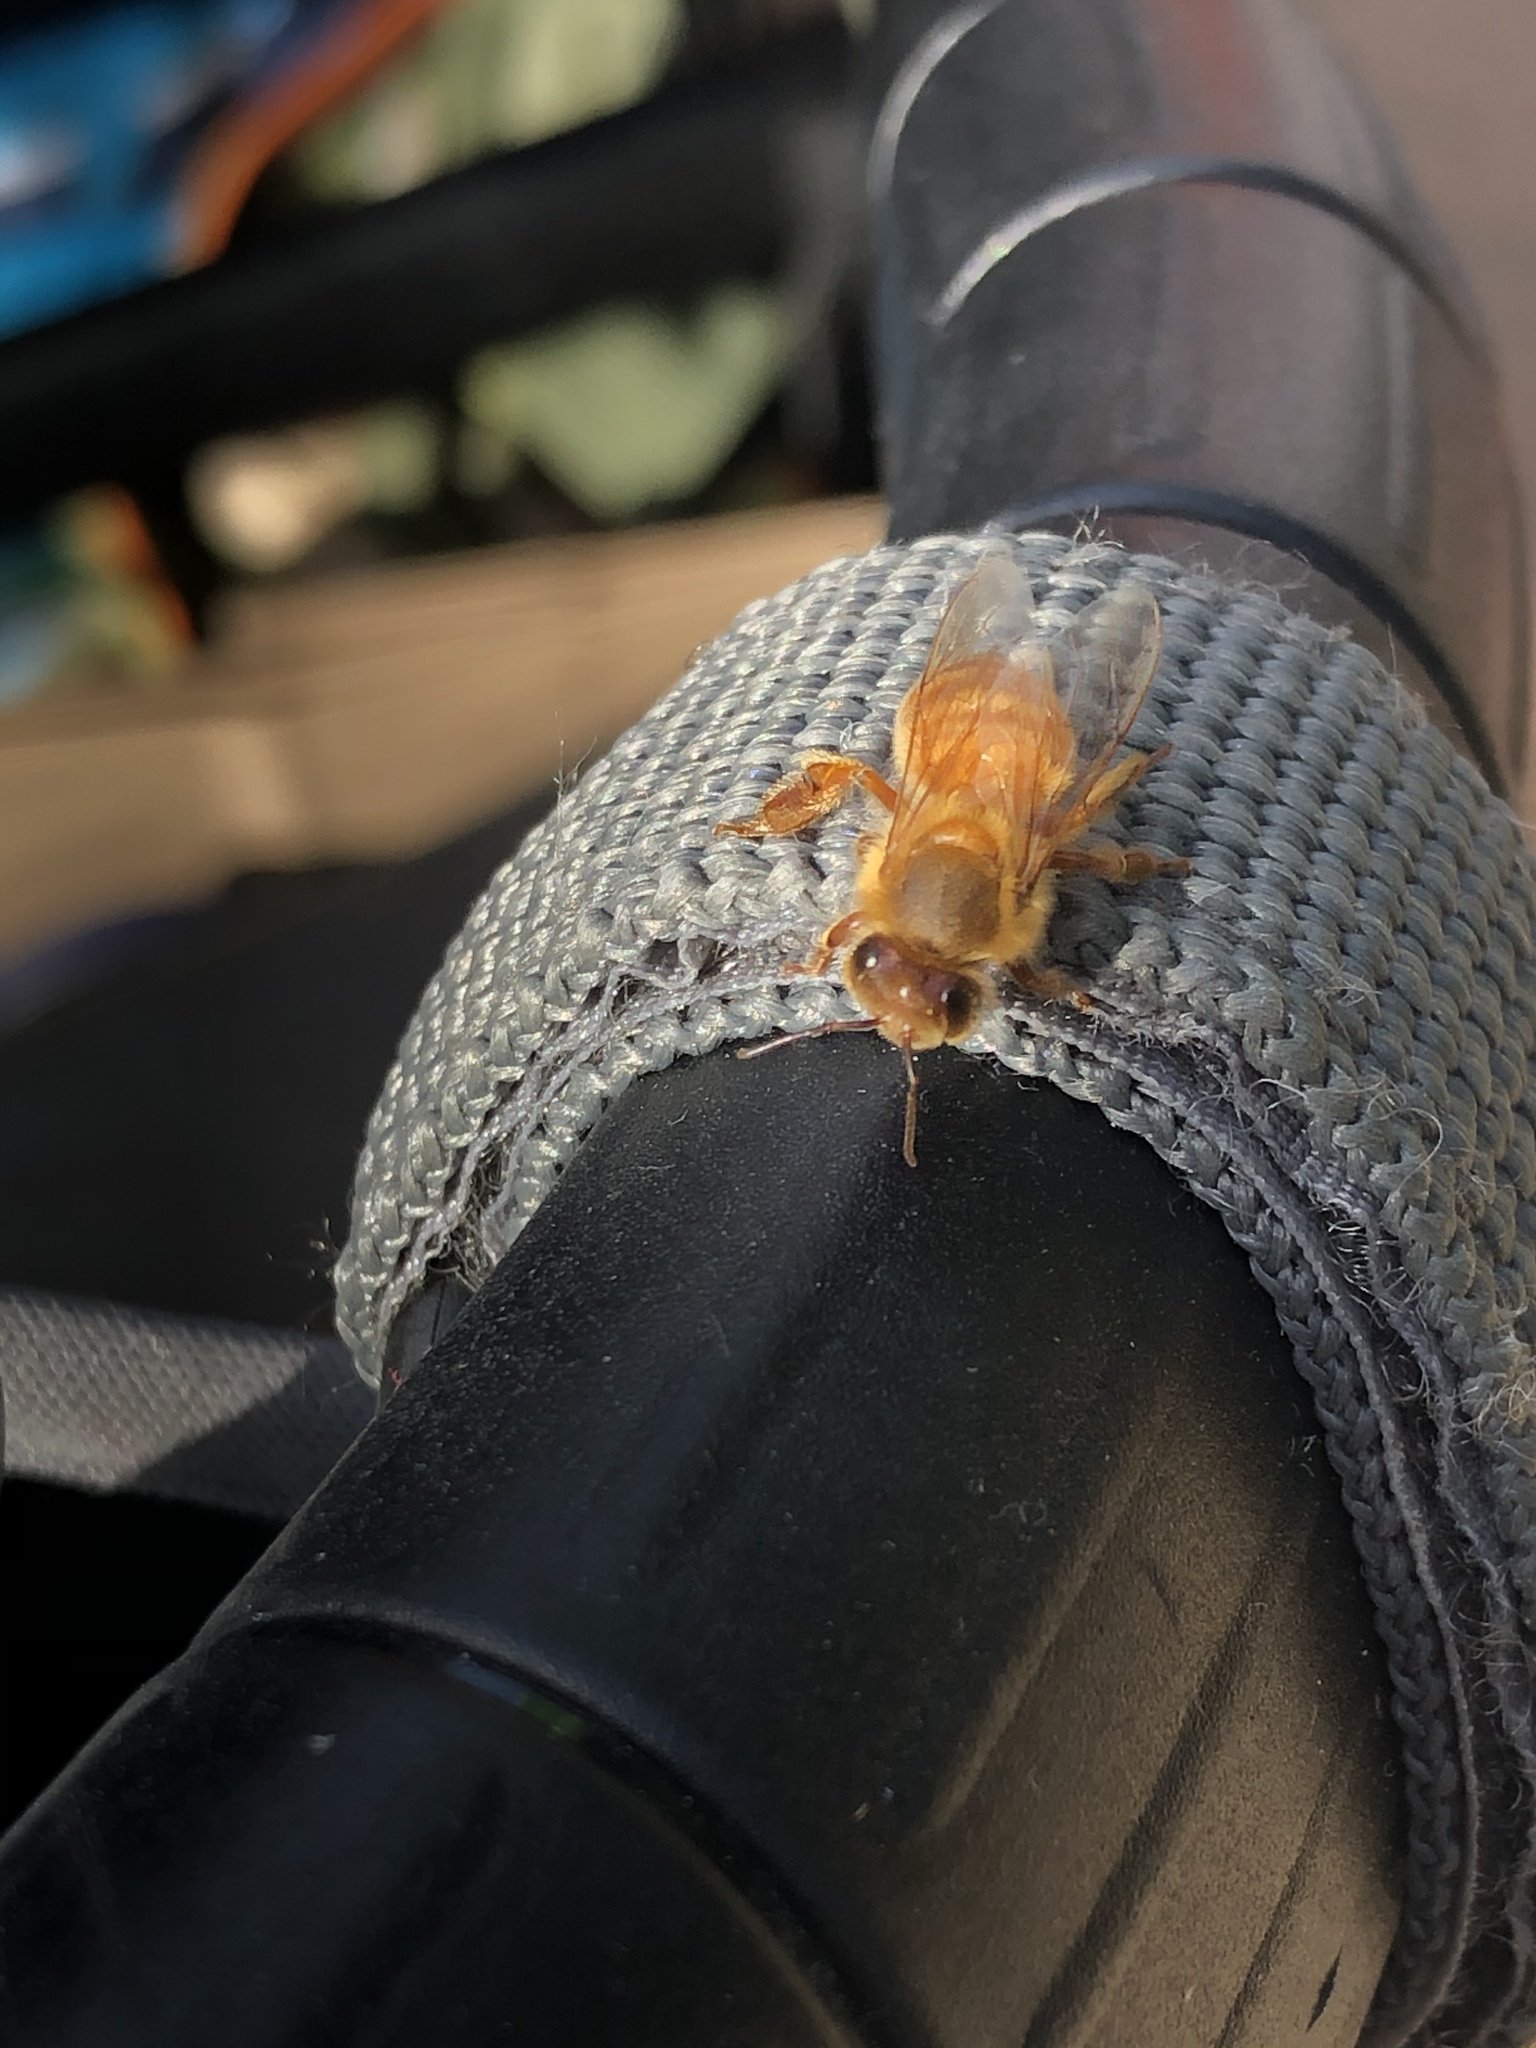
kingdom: Animalia
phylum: Arthropoda
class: Insecta
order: Hymenoptera
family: Apidae
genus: Apis
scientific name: Apis mellifera
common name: Honey bee
